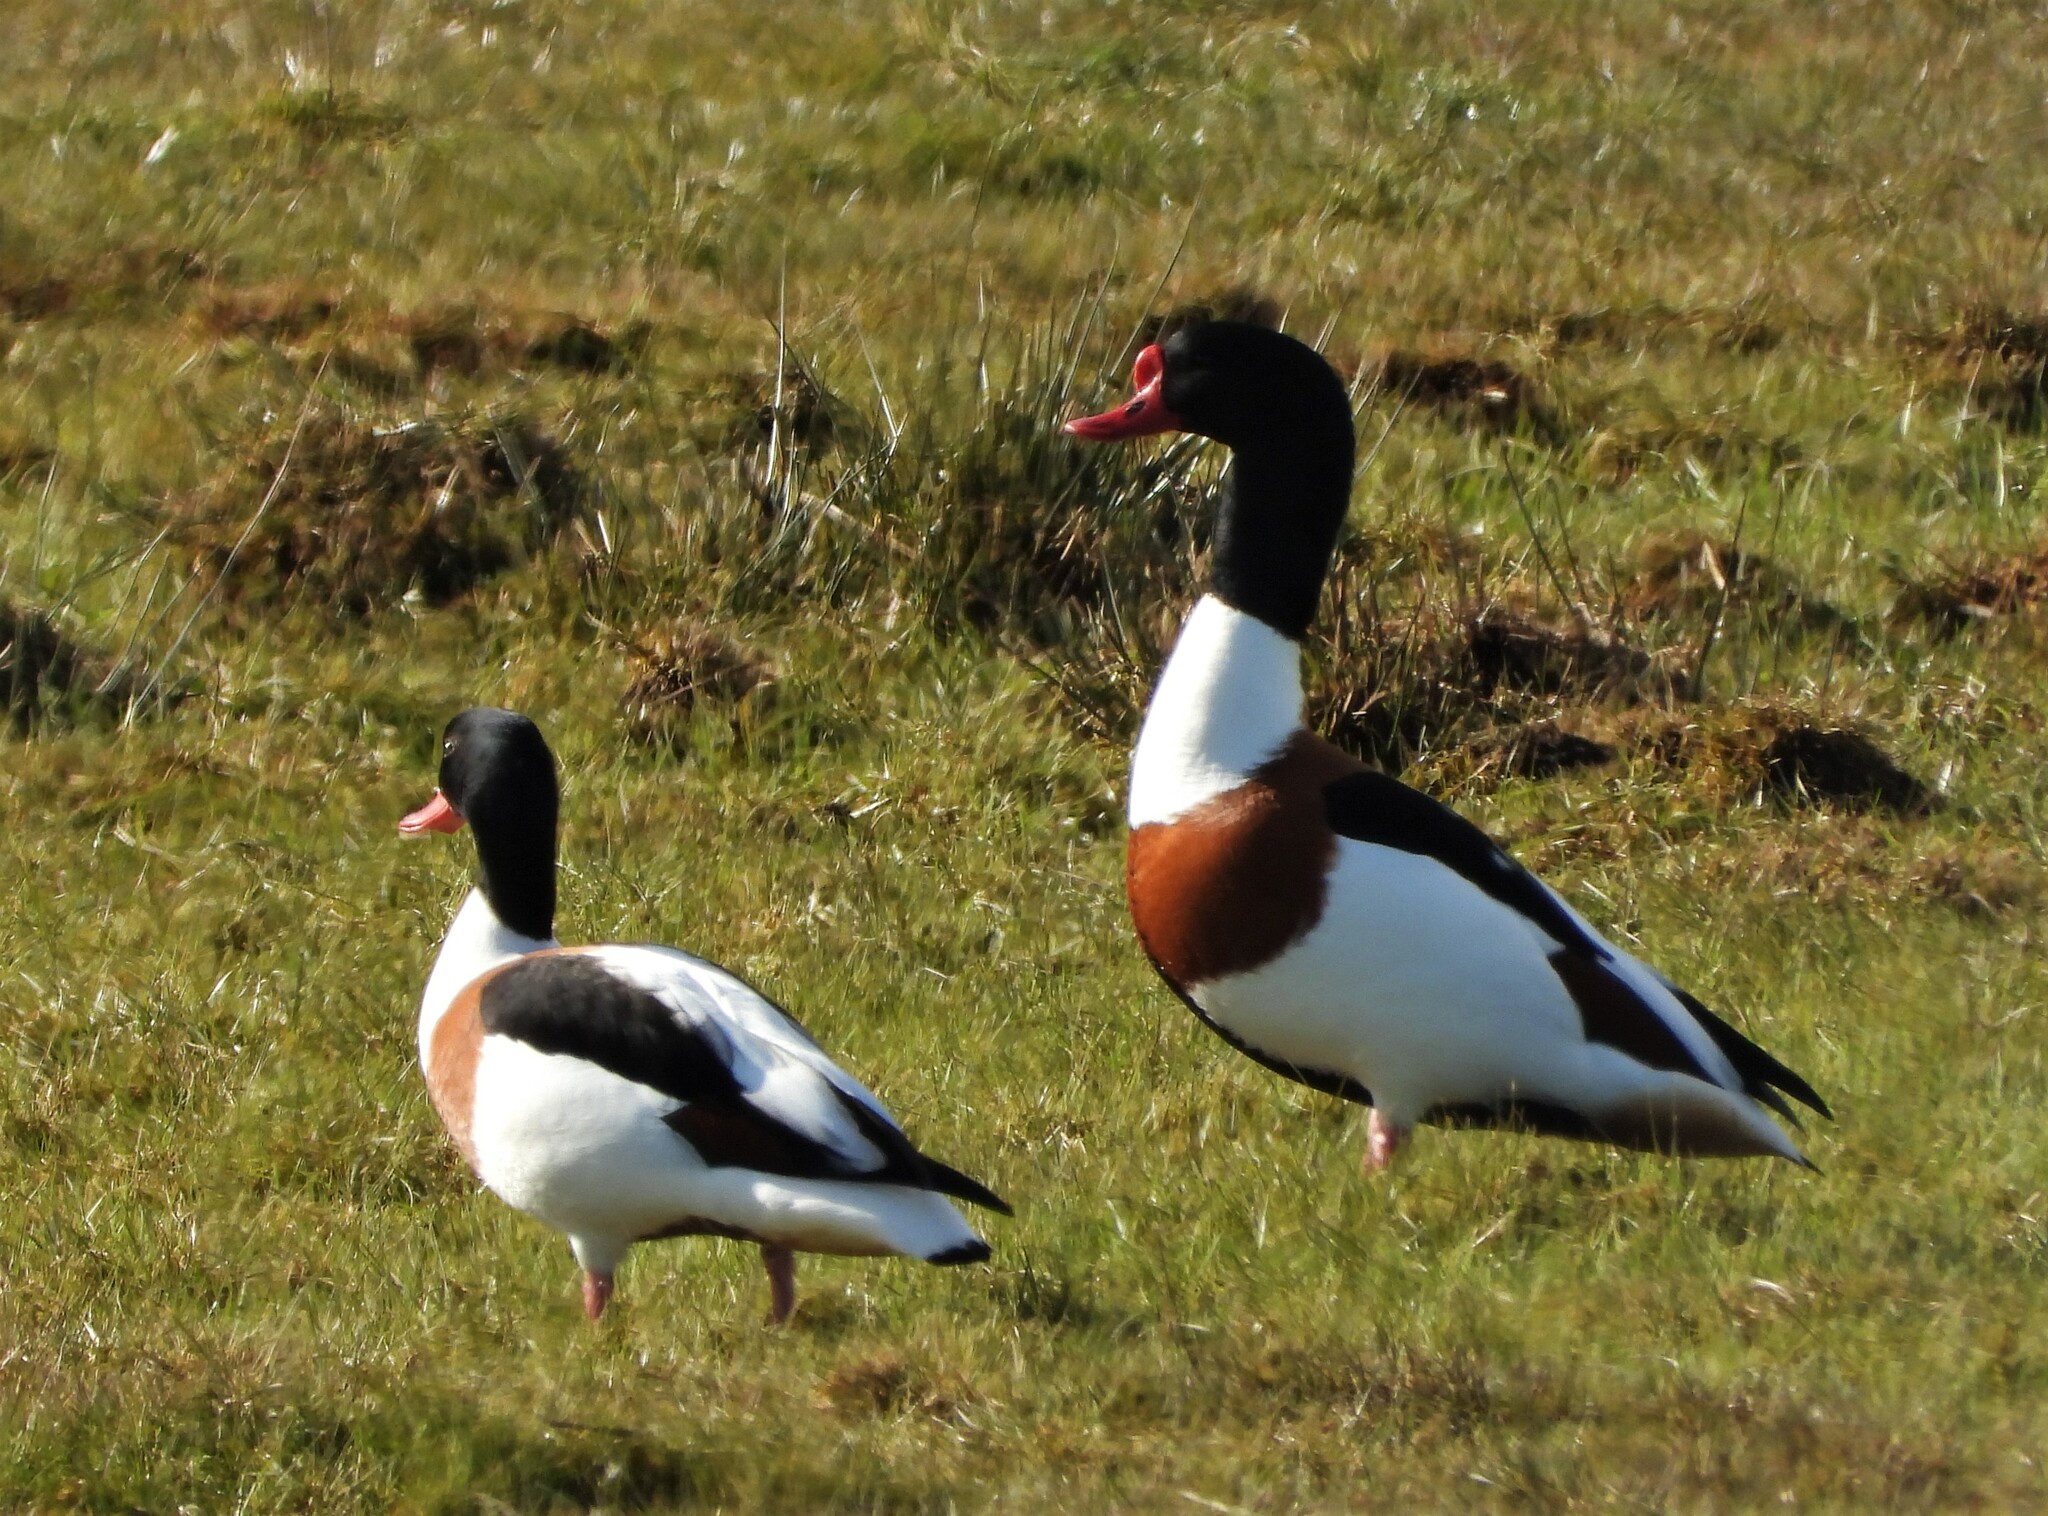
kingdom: Animalia
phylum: Chordata
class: Aves
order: Anseriformes
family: Anatidae
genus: Tadorna
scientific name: Tadorna tadorna
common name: Common shelduck
